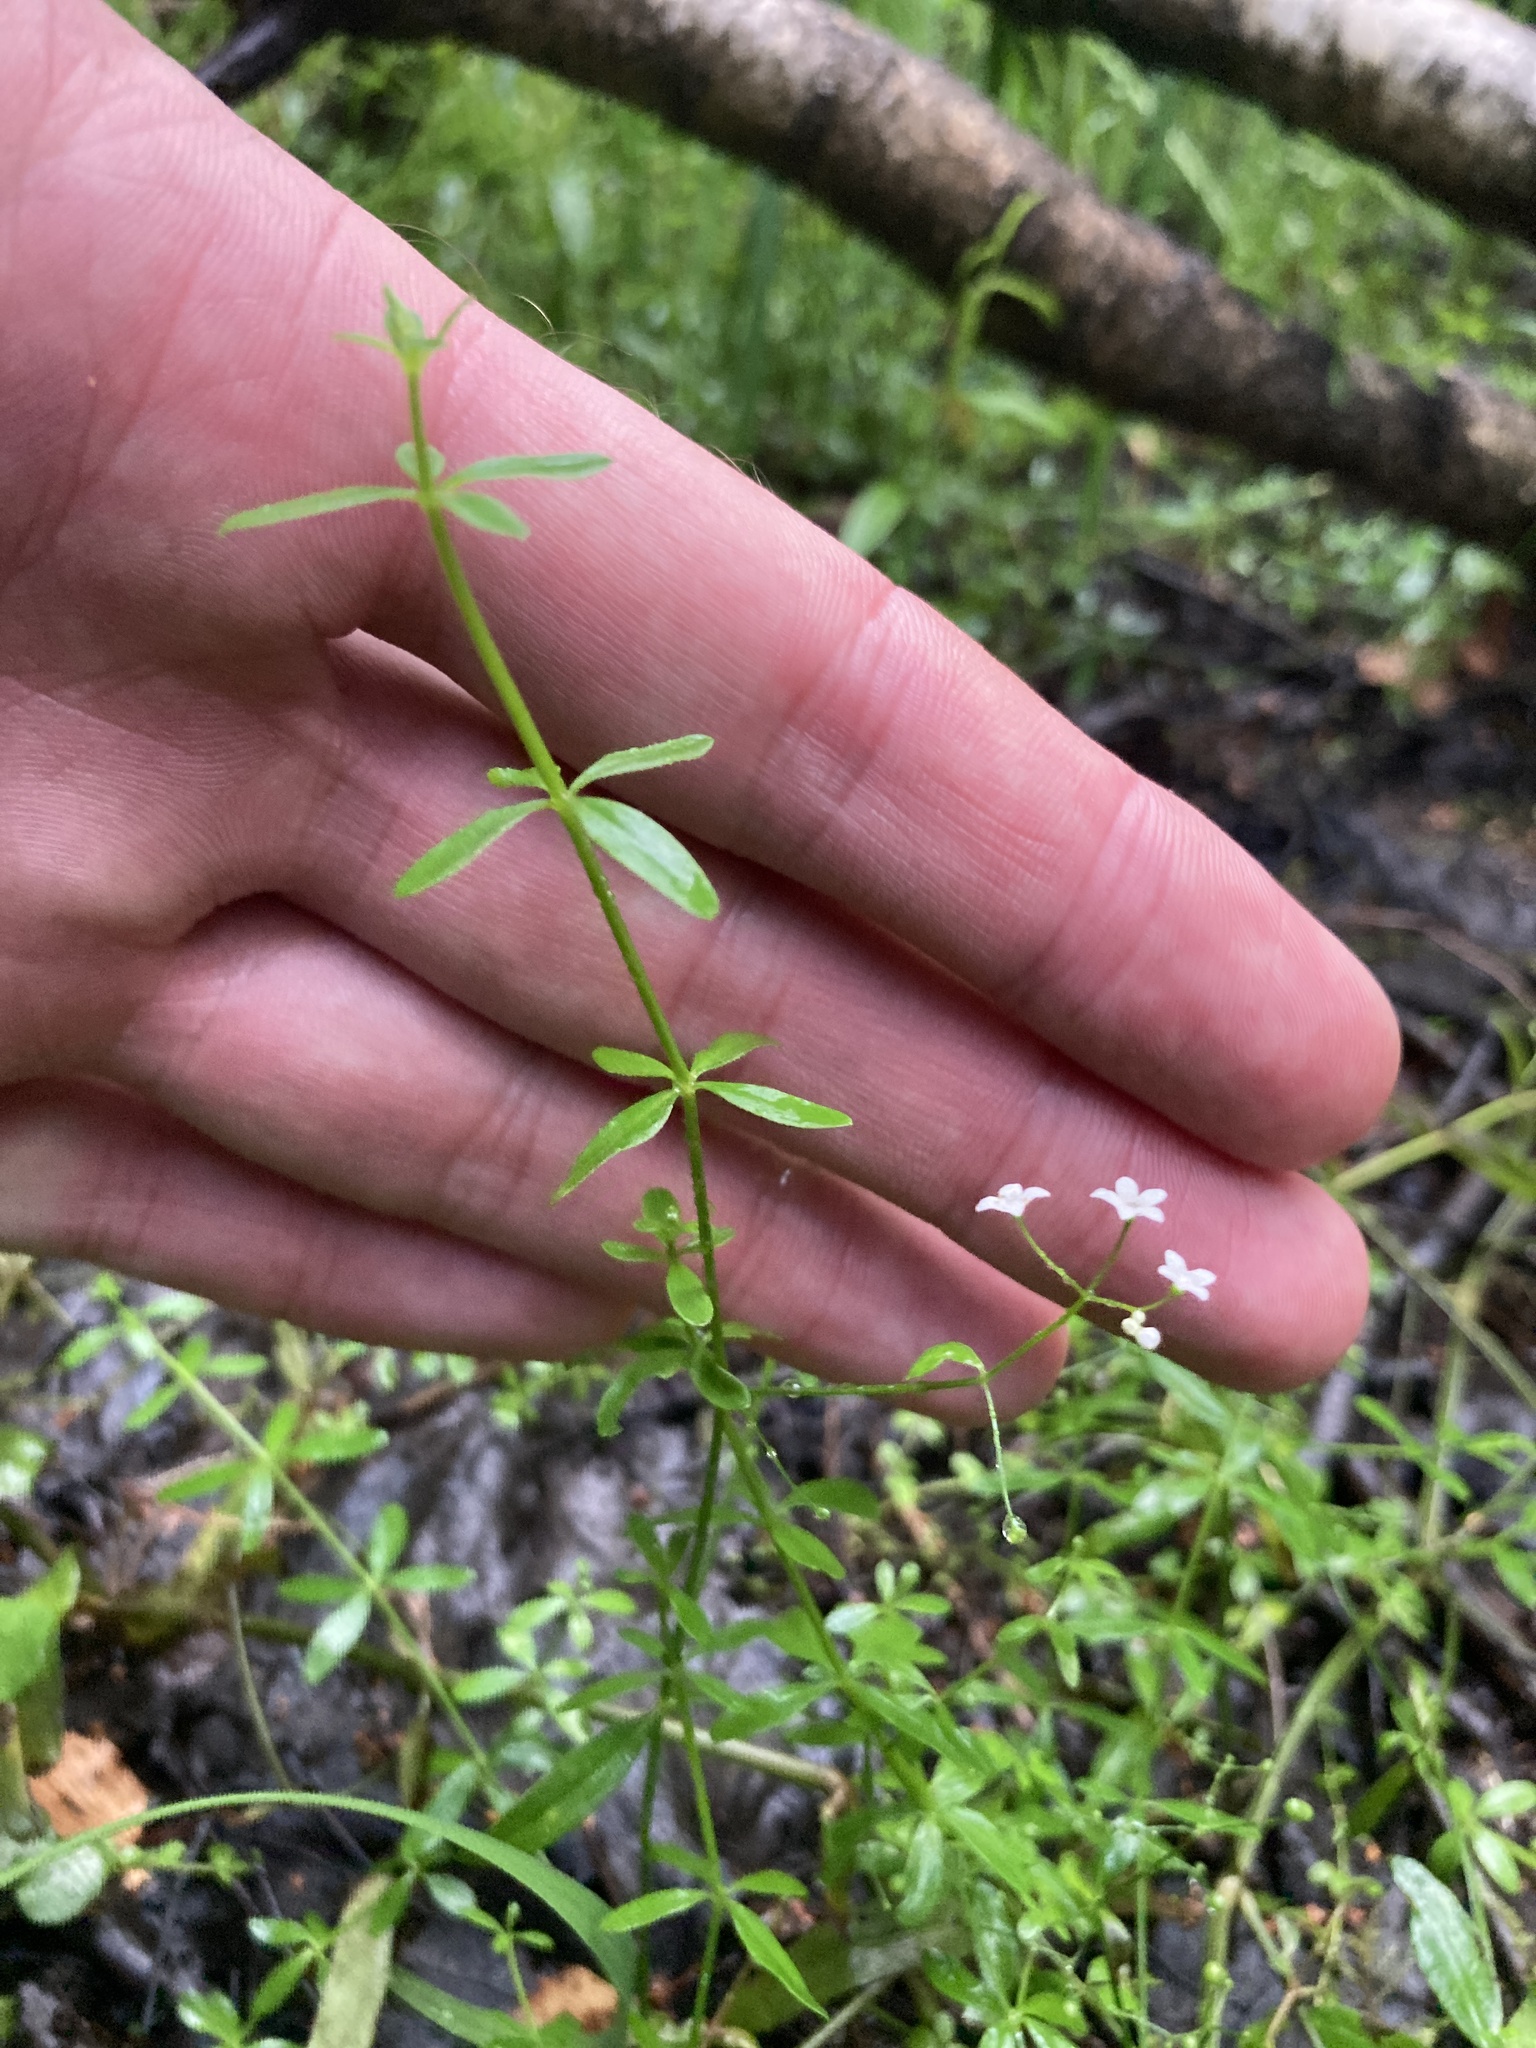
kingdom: Plantae
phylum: Tracheophyta
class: Magnoliopsida
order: Gentianales
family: Rubiaceae
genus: Galium
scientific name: Galium palustre
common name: Common marsh-bedstraw
